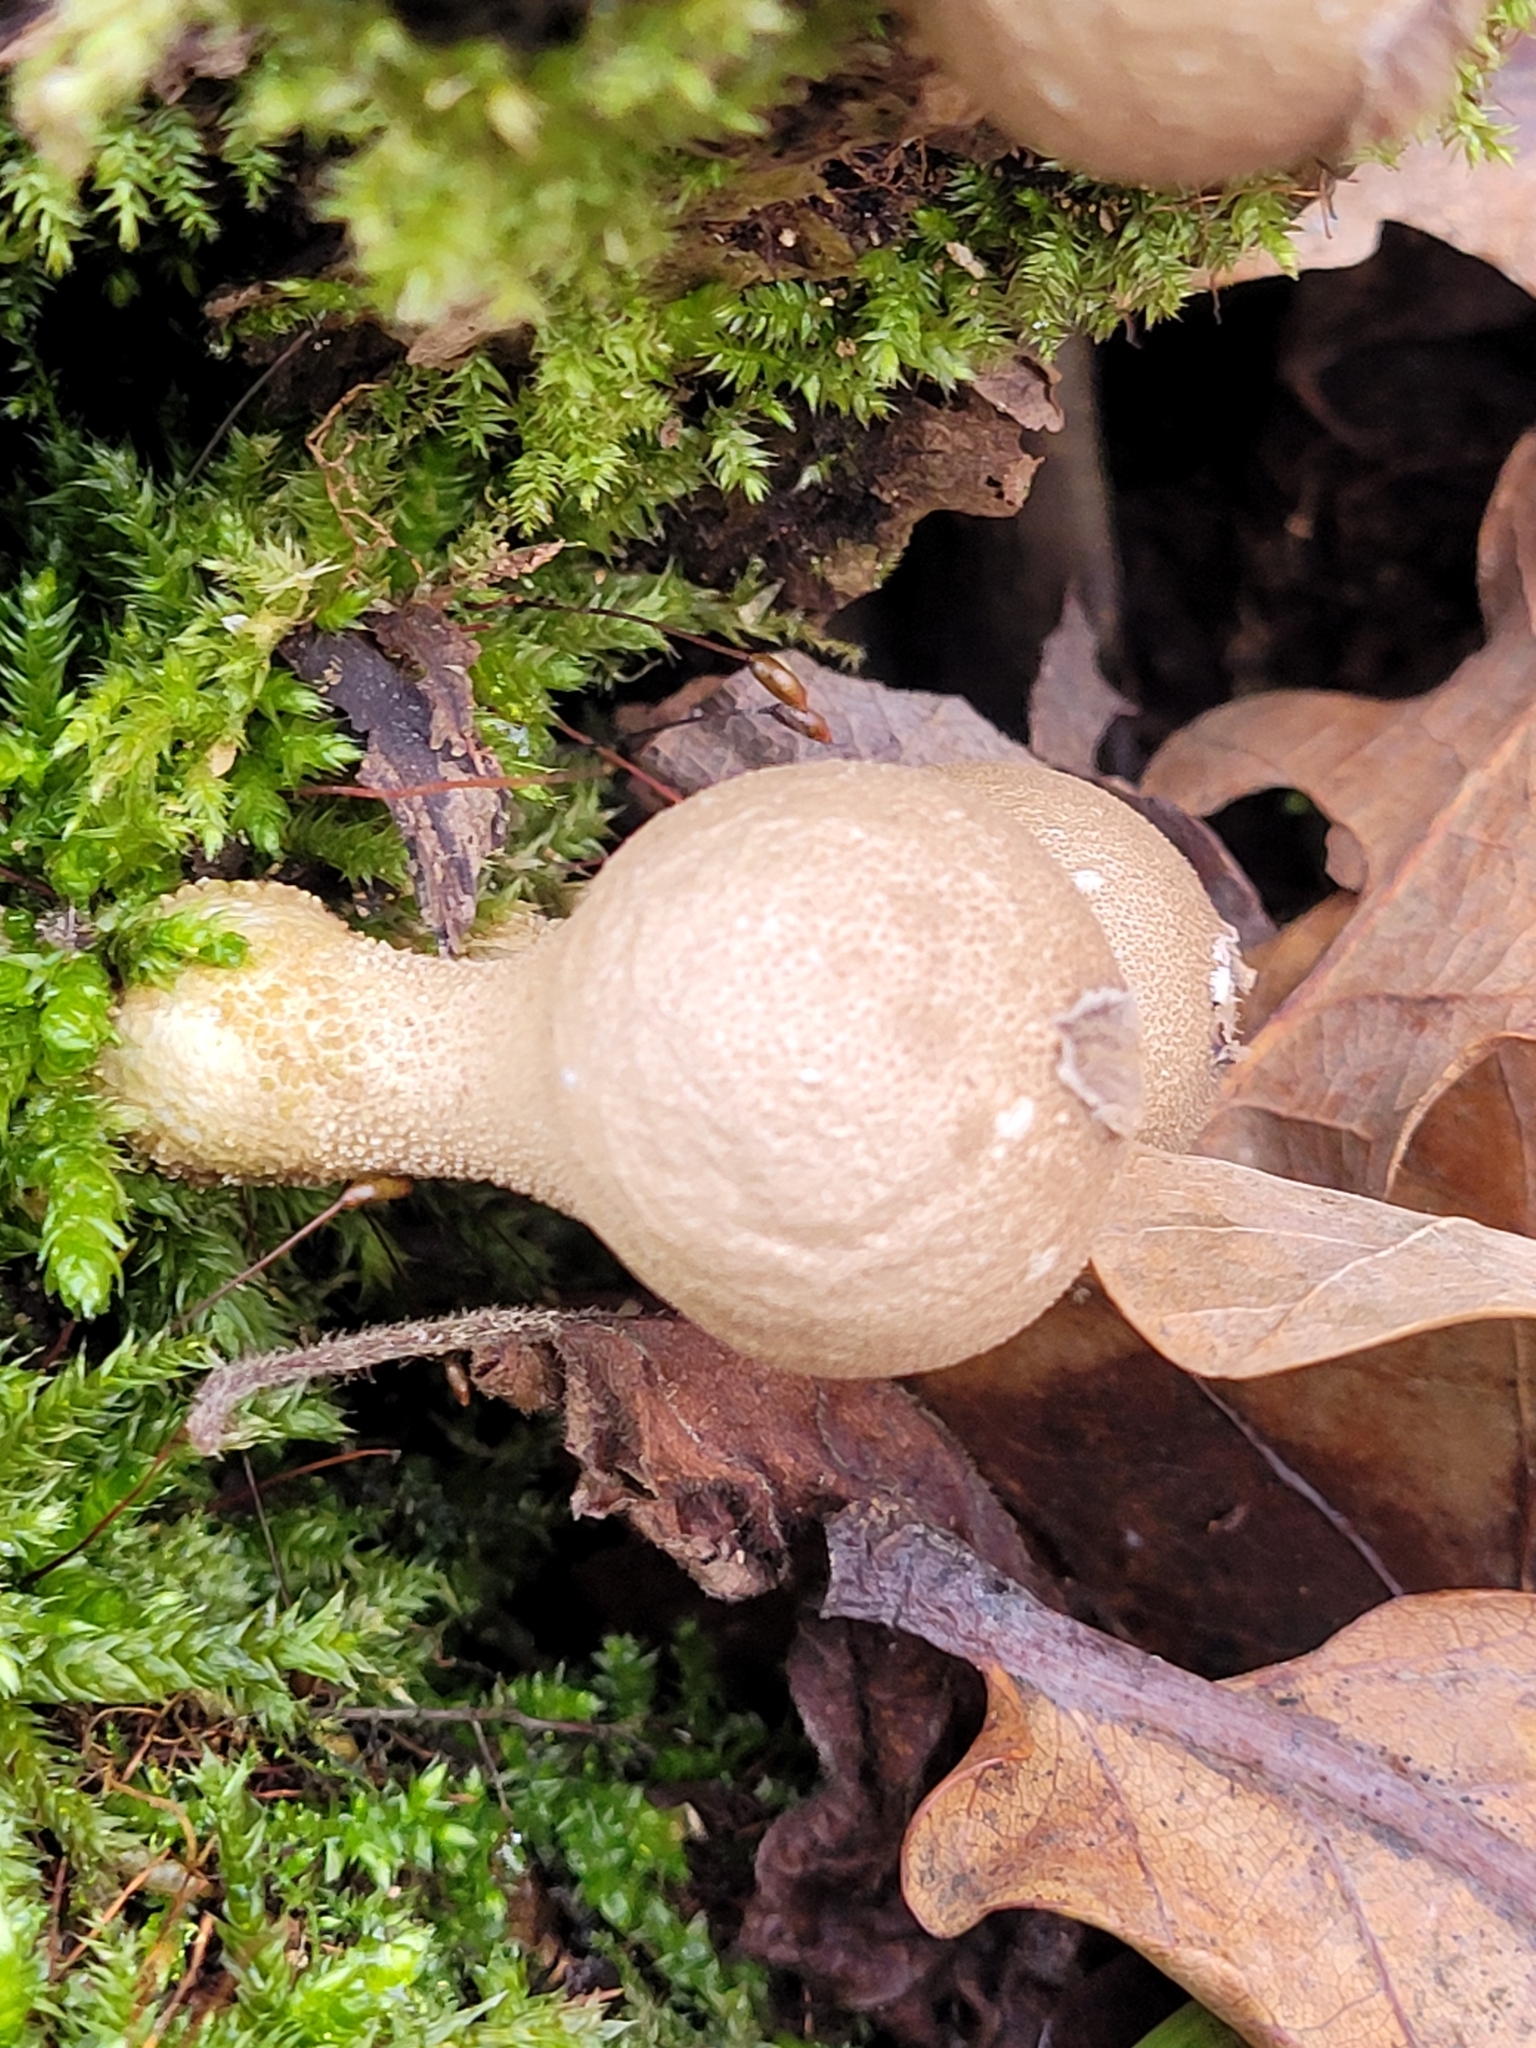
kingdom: Fungi
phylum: Basidiomycota
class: Agaricomycetes
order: Agaricales
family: Lycoperdaceae
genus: Apioperdon
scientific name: Apioperdon pyriforme
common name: Pear-shaped puffball
